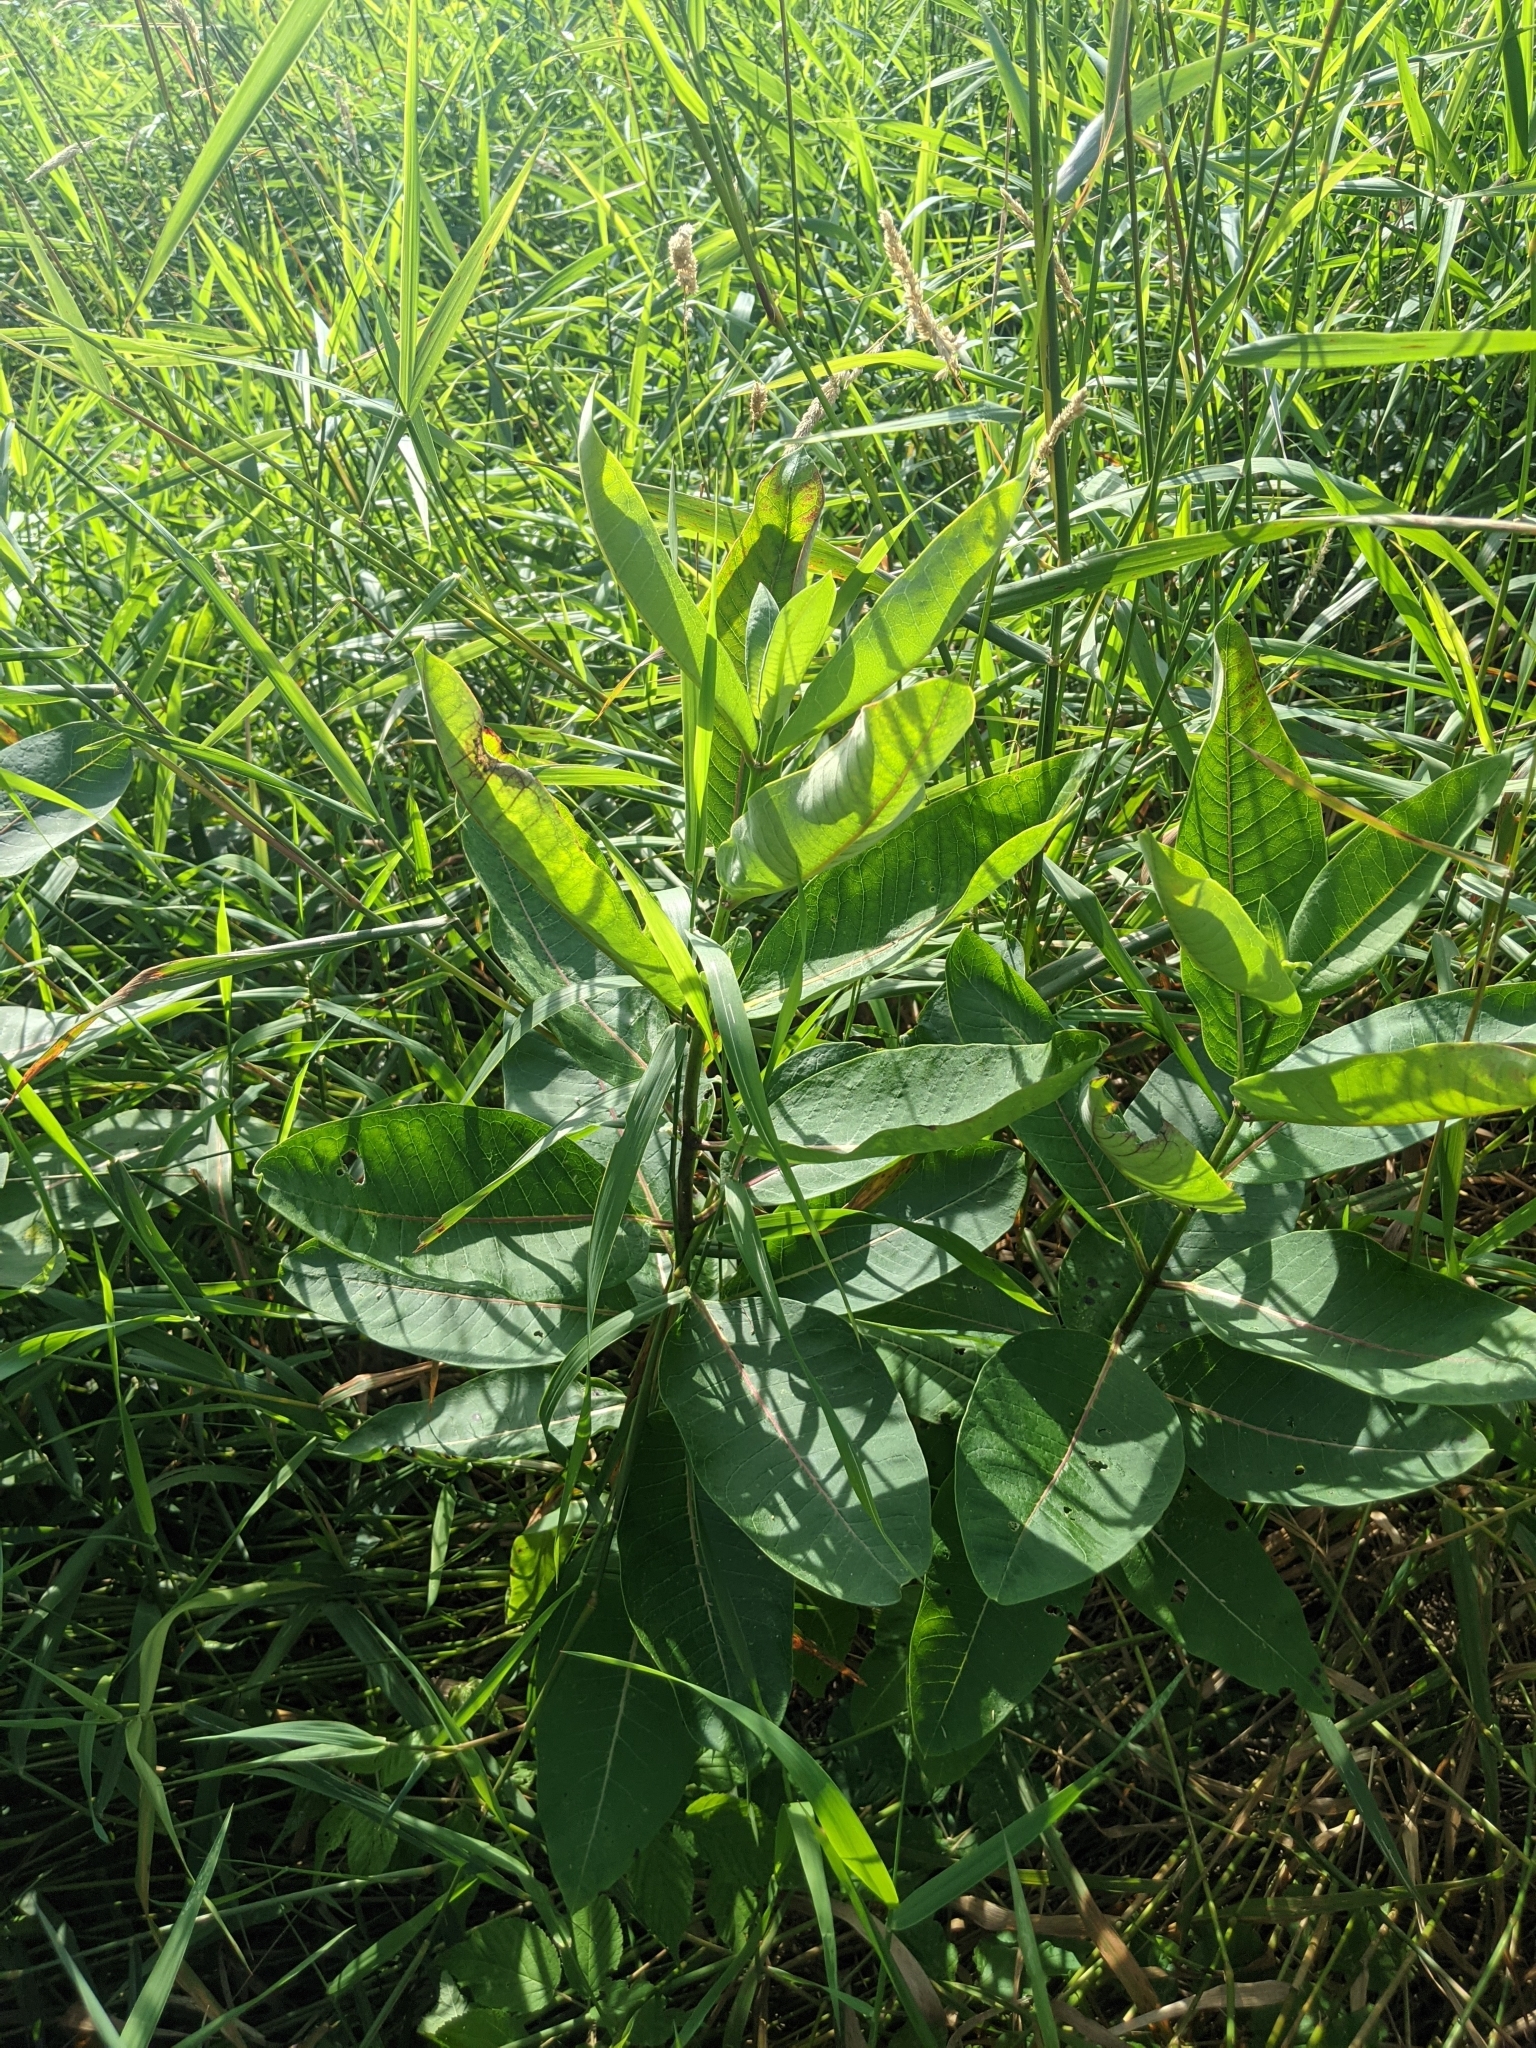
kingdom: Animalia
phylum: Arthropoda
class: Insecta
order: Diptera
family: Agromyzidae
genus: Liriomyza
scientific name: Liriomyza asclepiadis
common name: Milkweed leaf-miner fly
